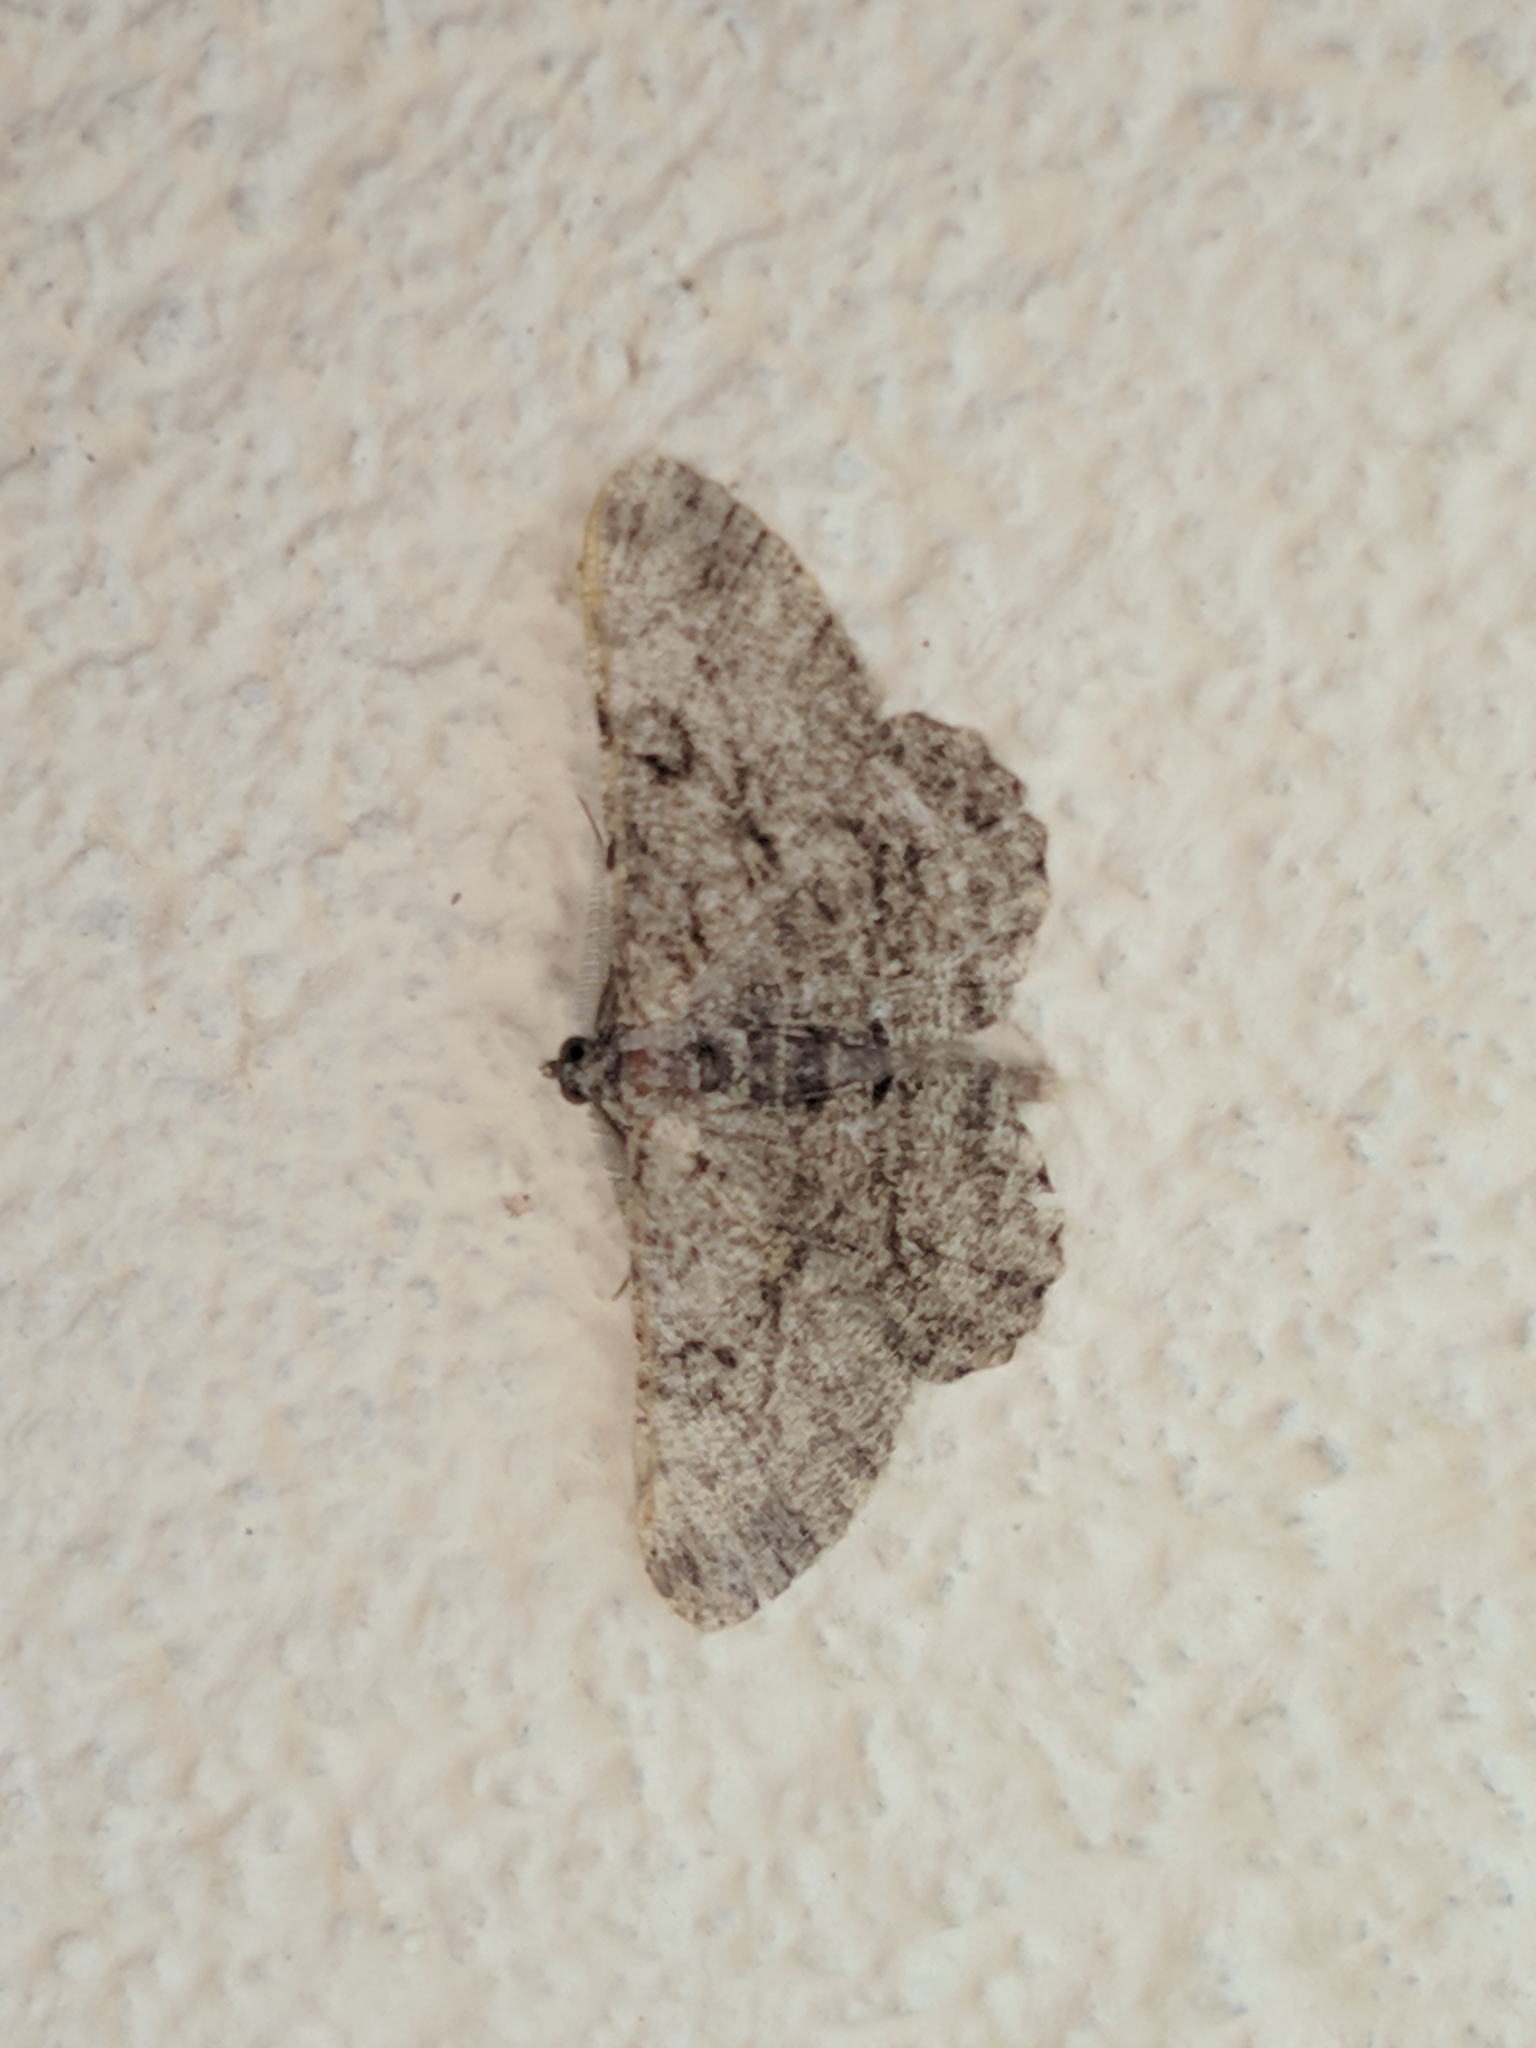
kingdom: Animalia
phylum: Arthropoda
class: Insecta
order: Lepidoptera
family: Geometridae
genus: Peribatodes
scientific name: Peribatodes rhomboidaria
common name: Willow beauty
